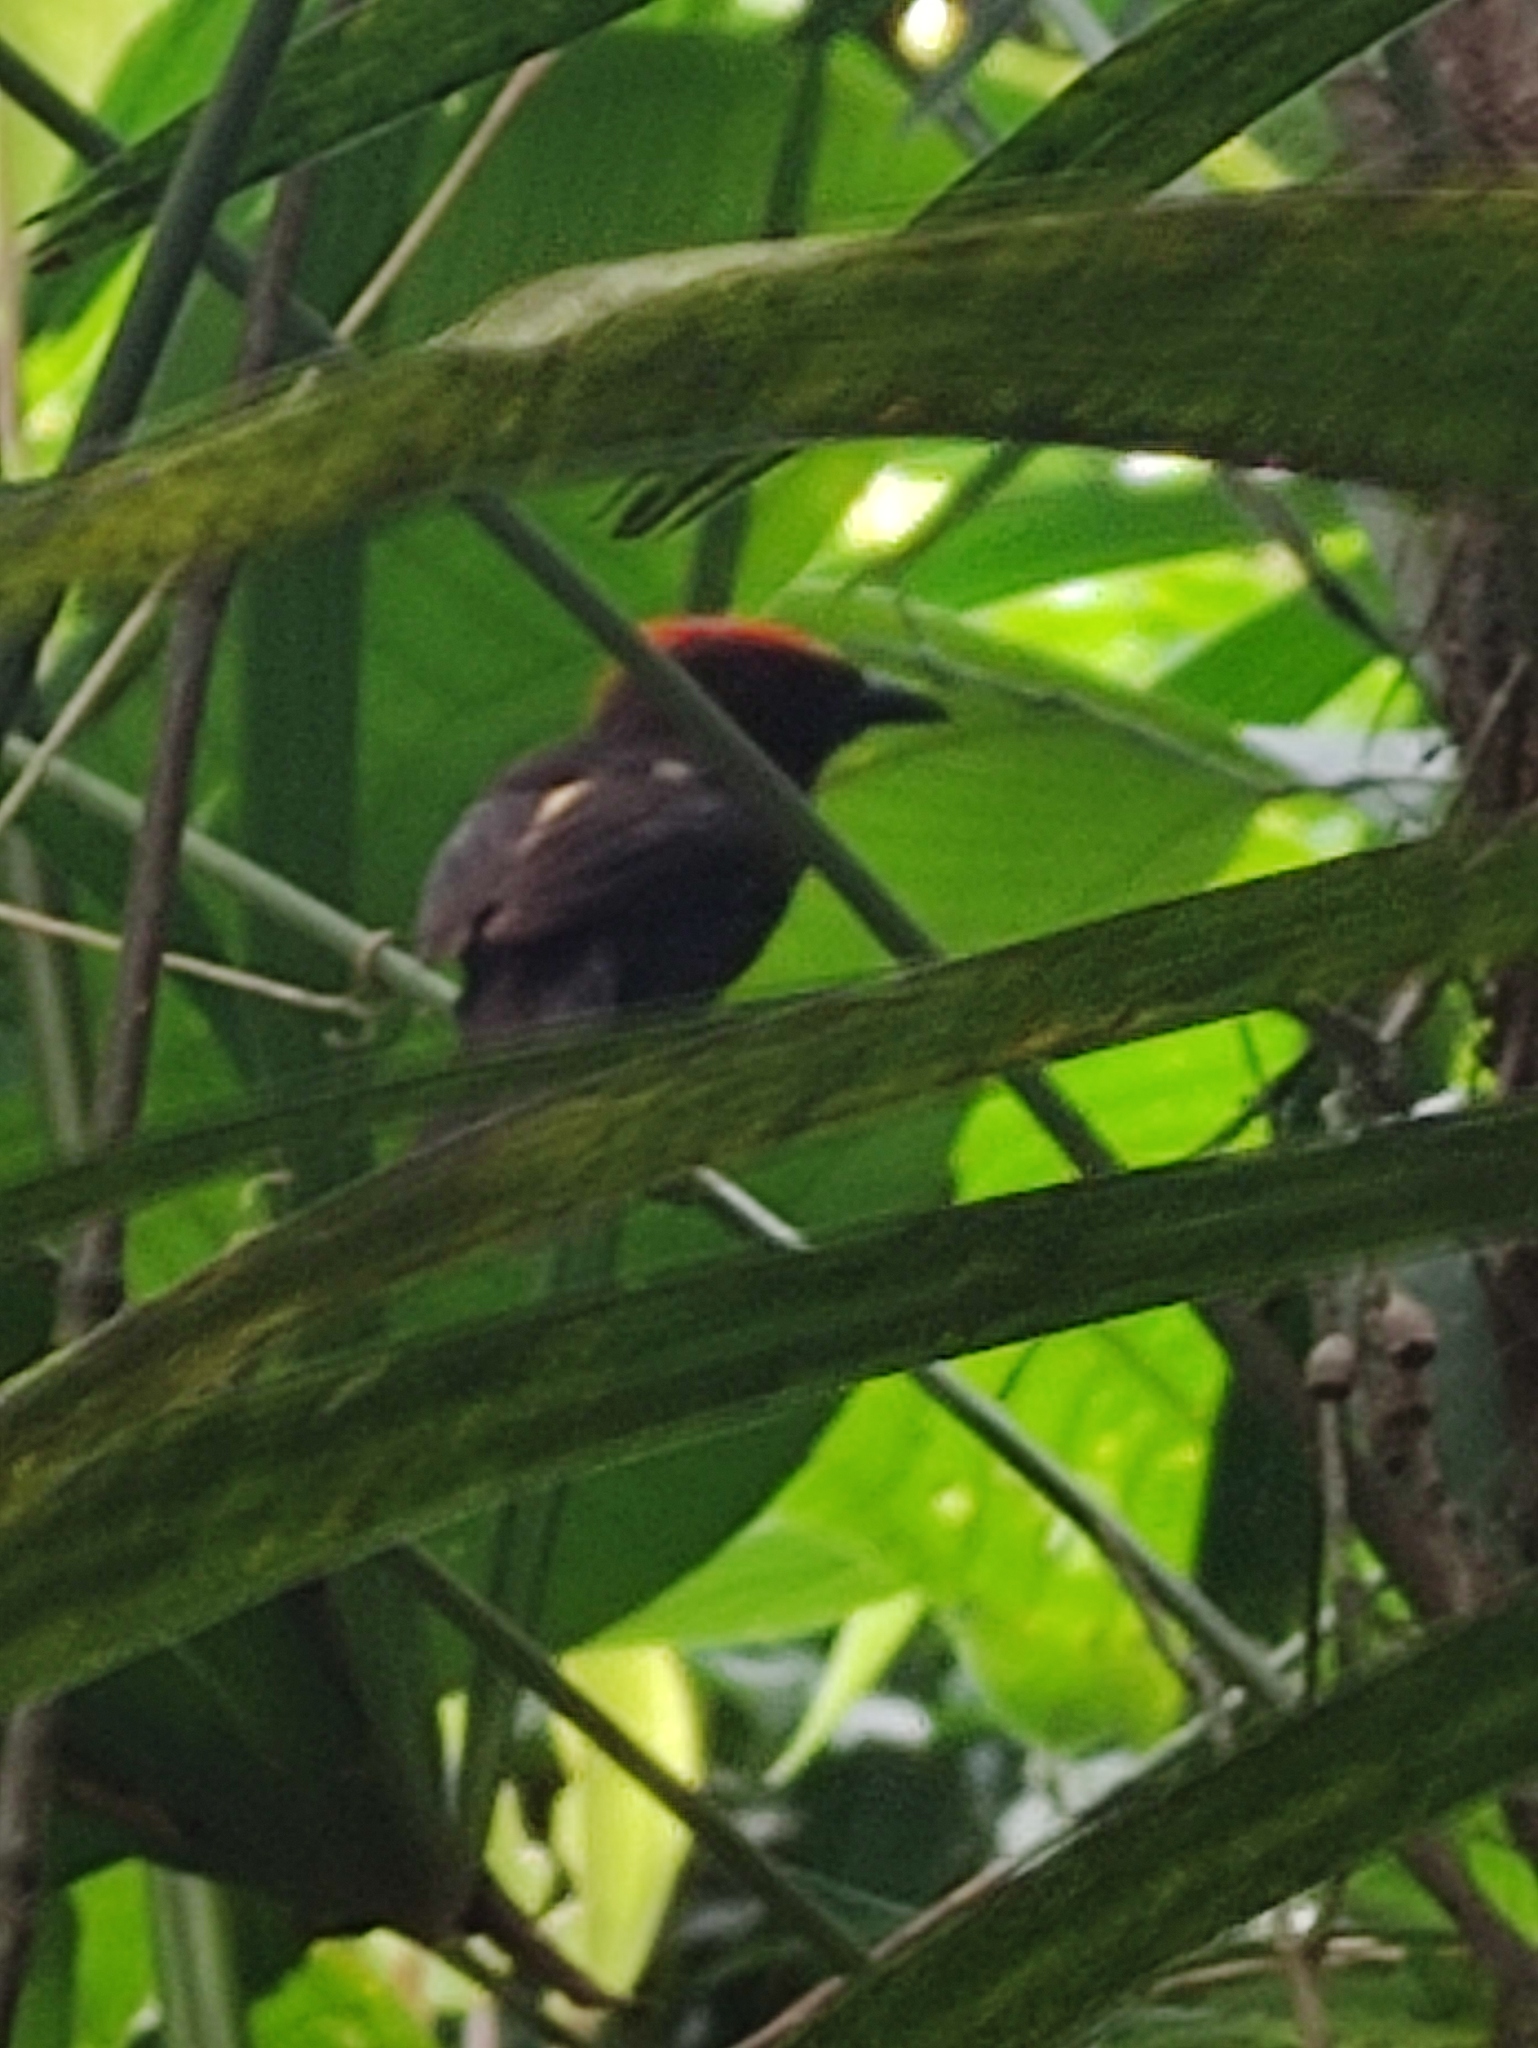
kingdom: Animalia
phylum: Chordata
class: Aves
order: Passeriformes
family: Thraupidae
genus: Loriotus
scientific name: Loriotus cristatus
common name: Flame-crested tanager
